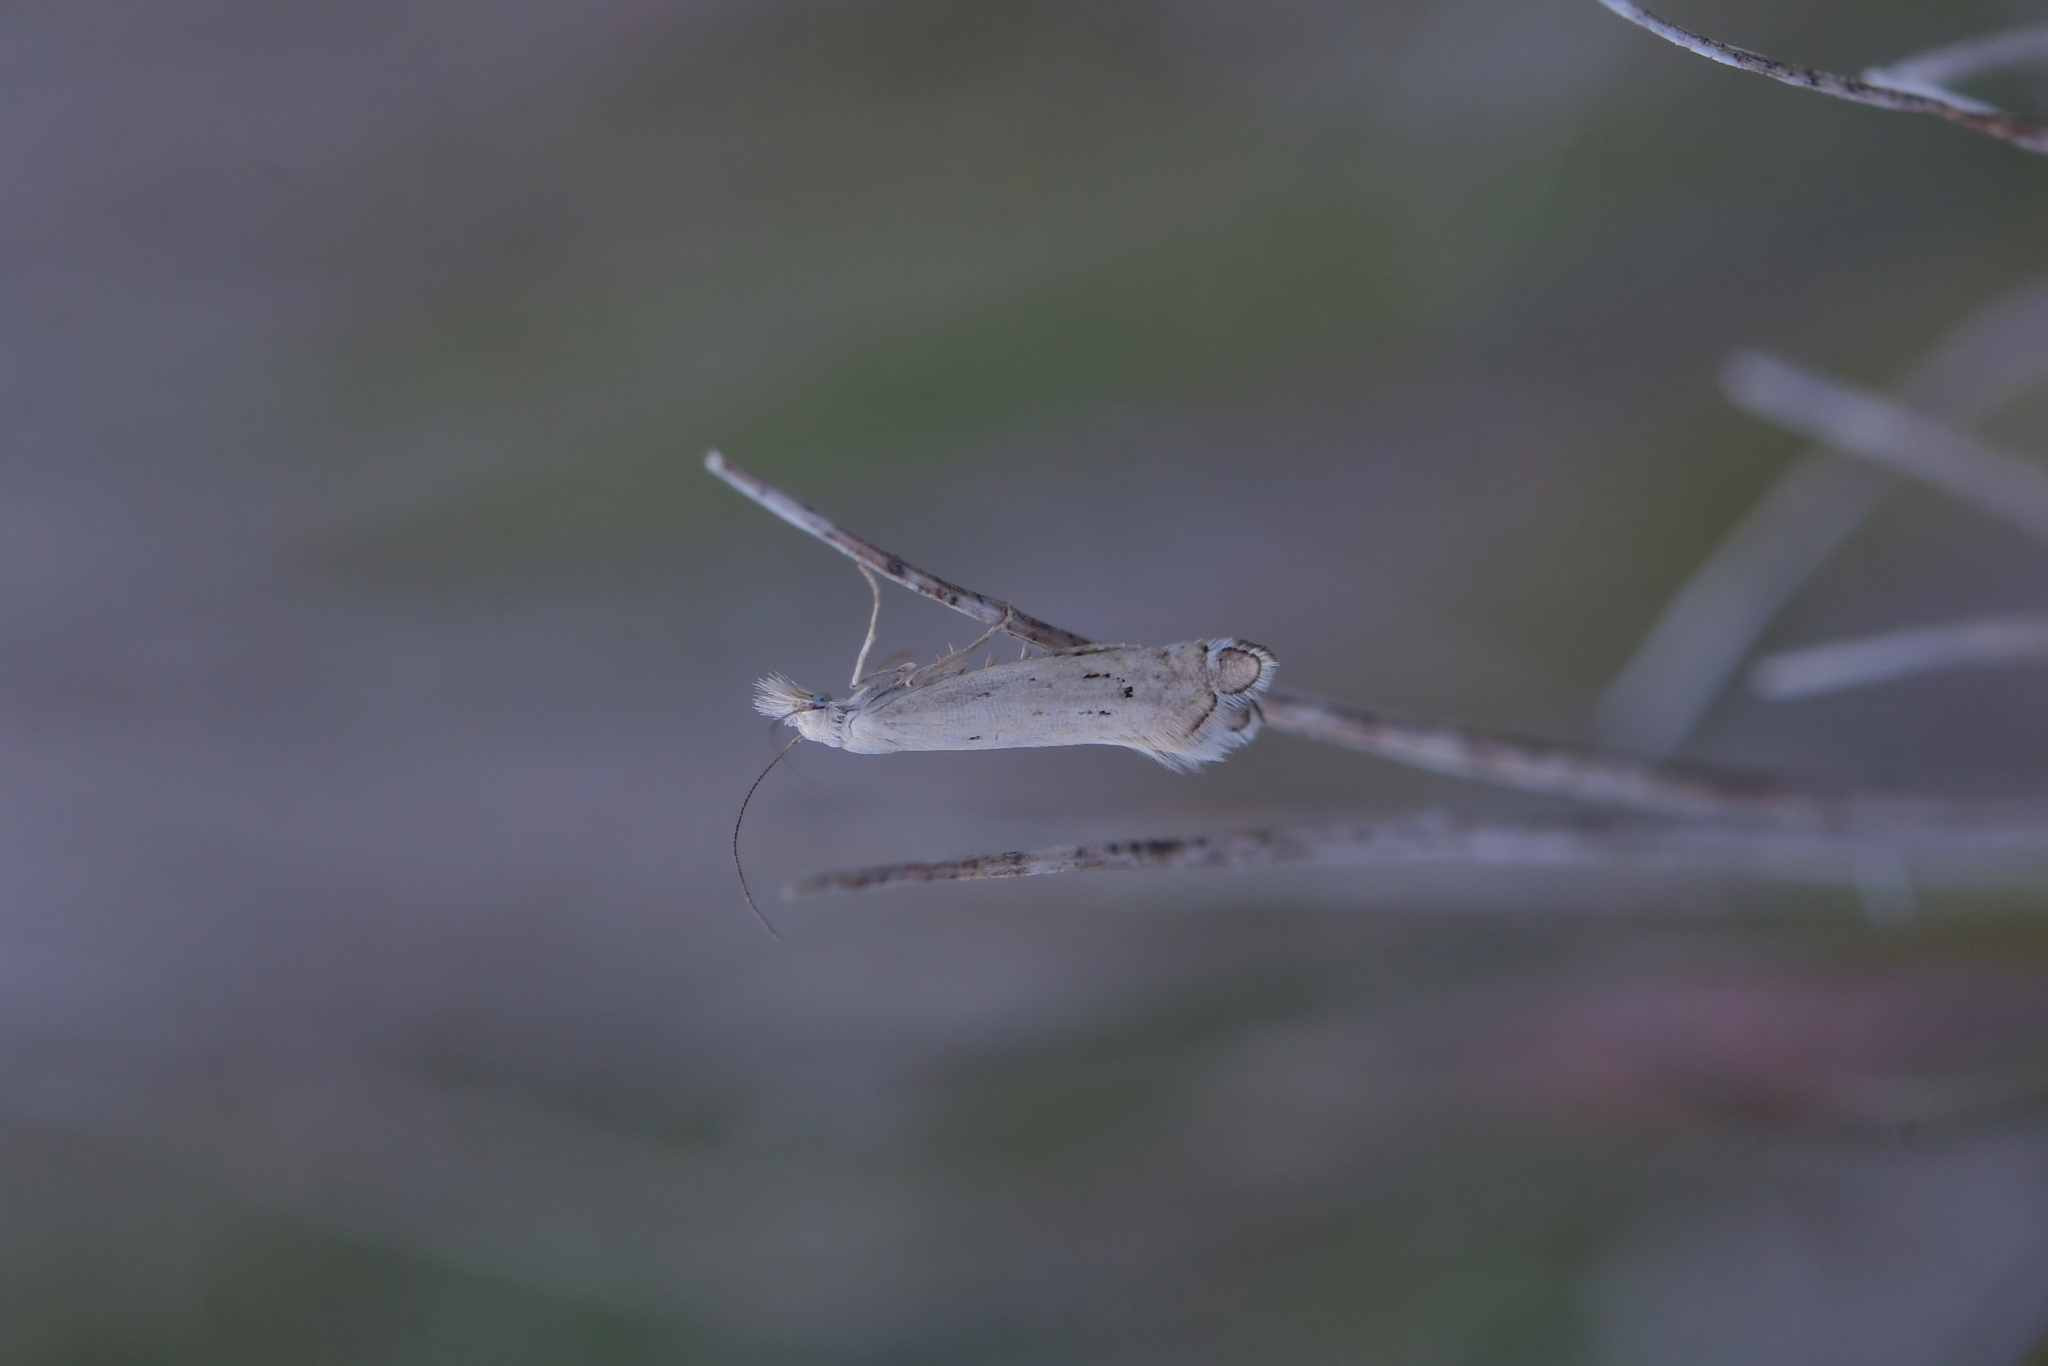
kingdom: Animalia
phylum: Arthropoda
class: Insecta
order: Lepidoptera
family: Glyphipterigidae
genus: Glyphipterix
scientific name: Glyphipterix achlyoessa
